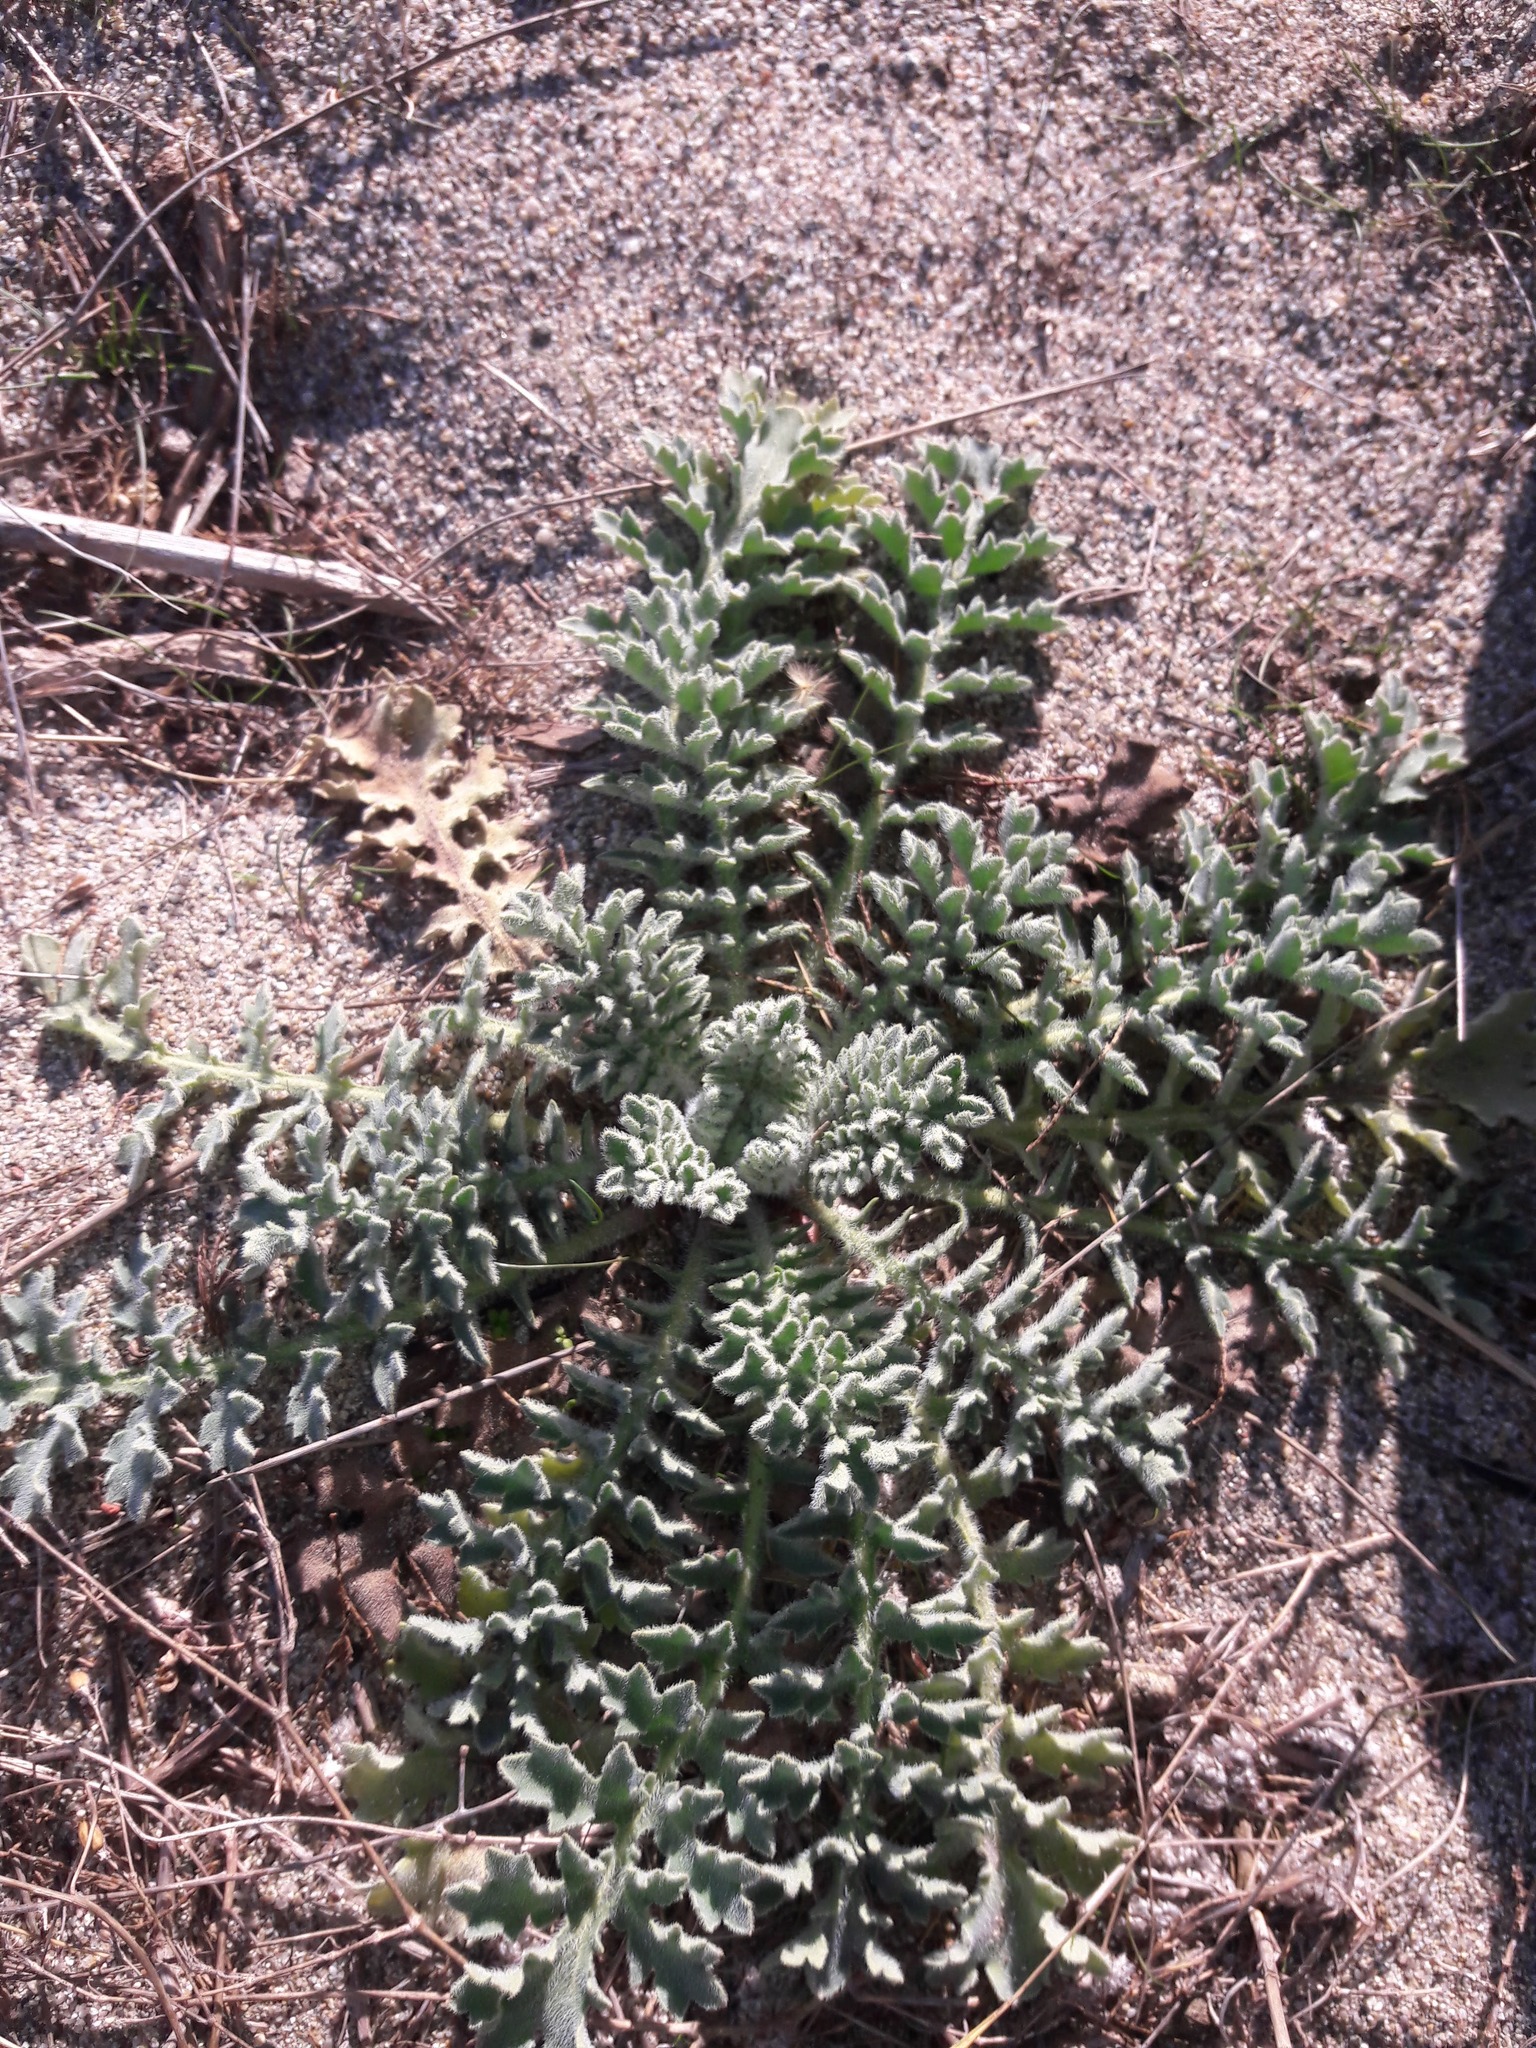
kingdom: Plantae
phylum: Tracheophyta
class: Magnoliopsida
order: Ranunculales
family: Papaveraceae
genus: Glaucium
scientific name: Glaucium flavum
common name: Yellow horned-poppy
